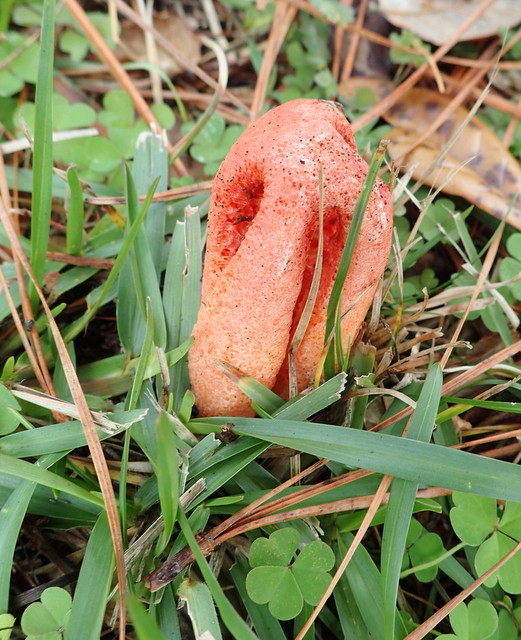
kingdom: Fungi
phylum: Basidiomycota
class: Agaricomycetes
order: Phallales
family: Phallaceae
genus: Clathrus
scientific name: Clathrus columnatus
